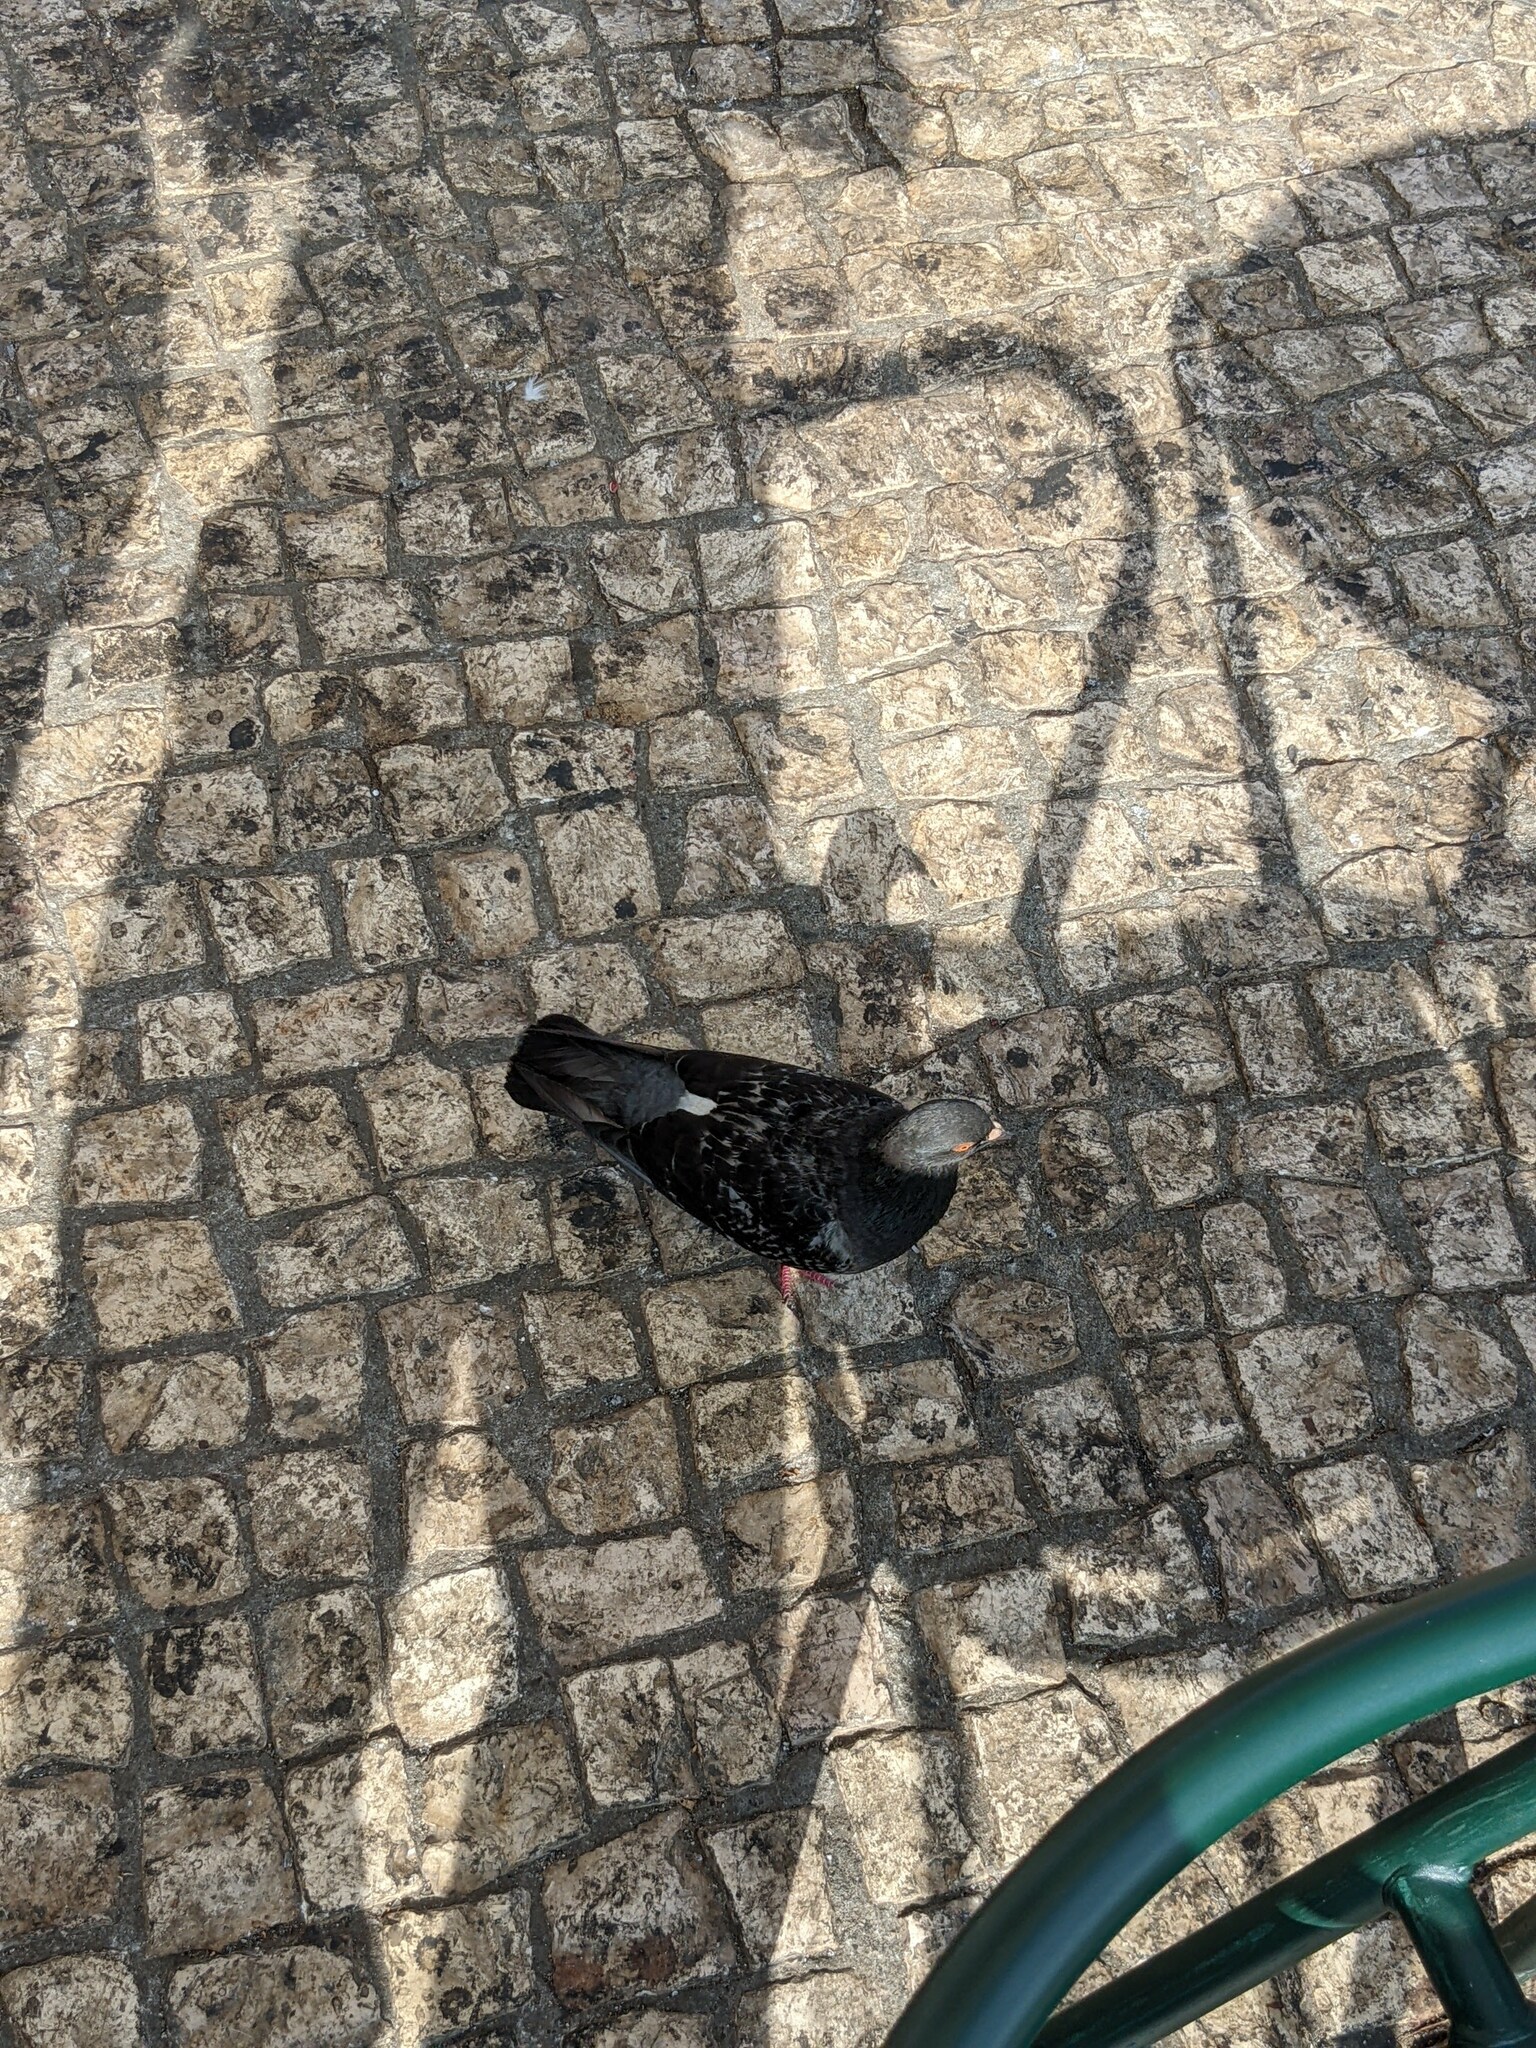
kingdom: Animalia
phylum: Chordata
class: Aves
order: Columbiformes
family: Columbidae
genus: Columba
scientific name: Columba livia
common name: Rock pigeon
